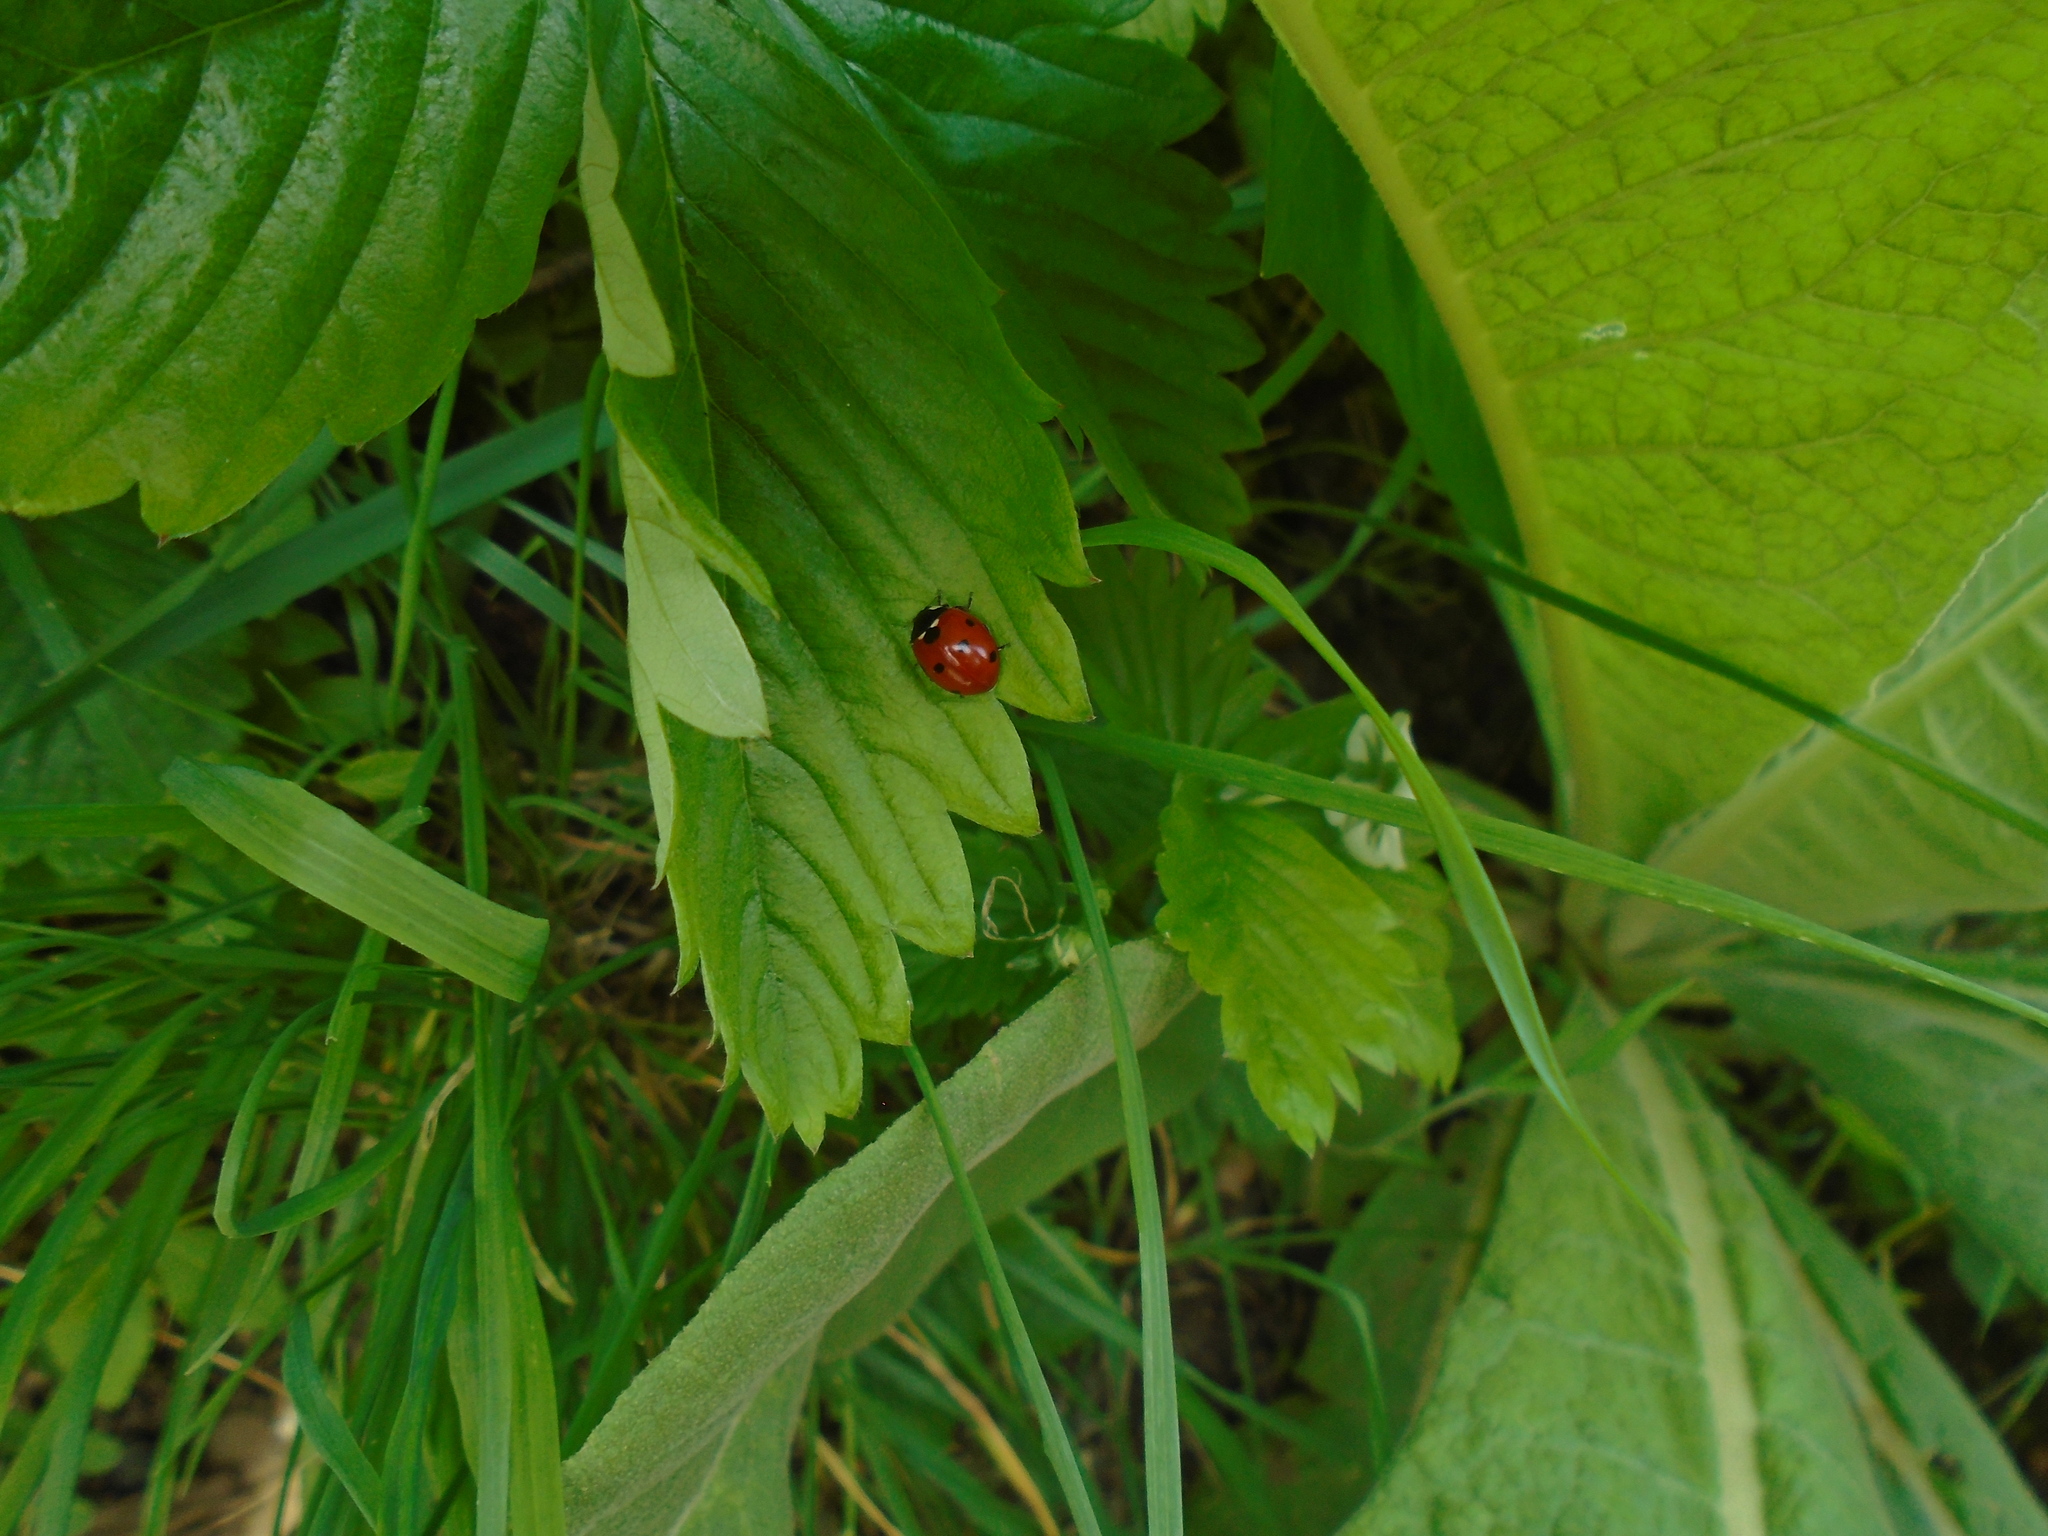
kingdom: Animalia
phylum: Arthropoda
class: Insecta
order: Coleoptera
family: Coccinellidae
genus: Coccinella
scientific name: Coccinella septempunctata
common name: Sevenspotted lady beetle
